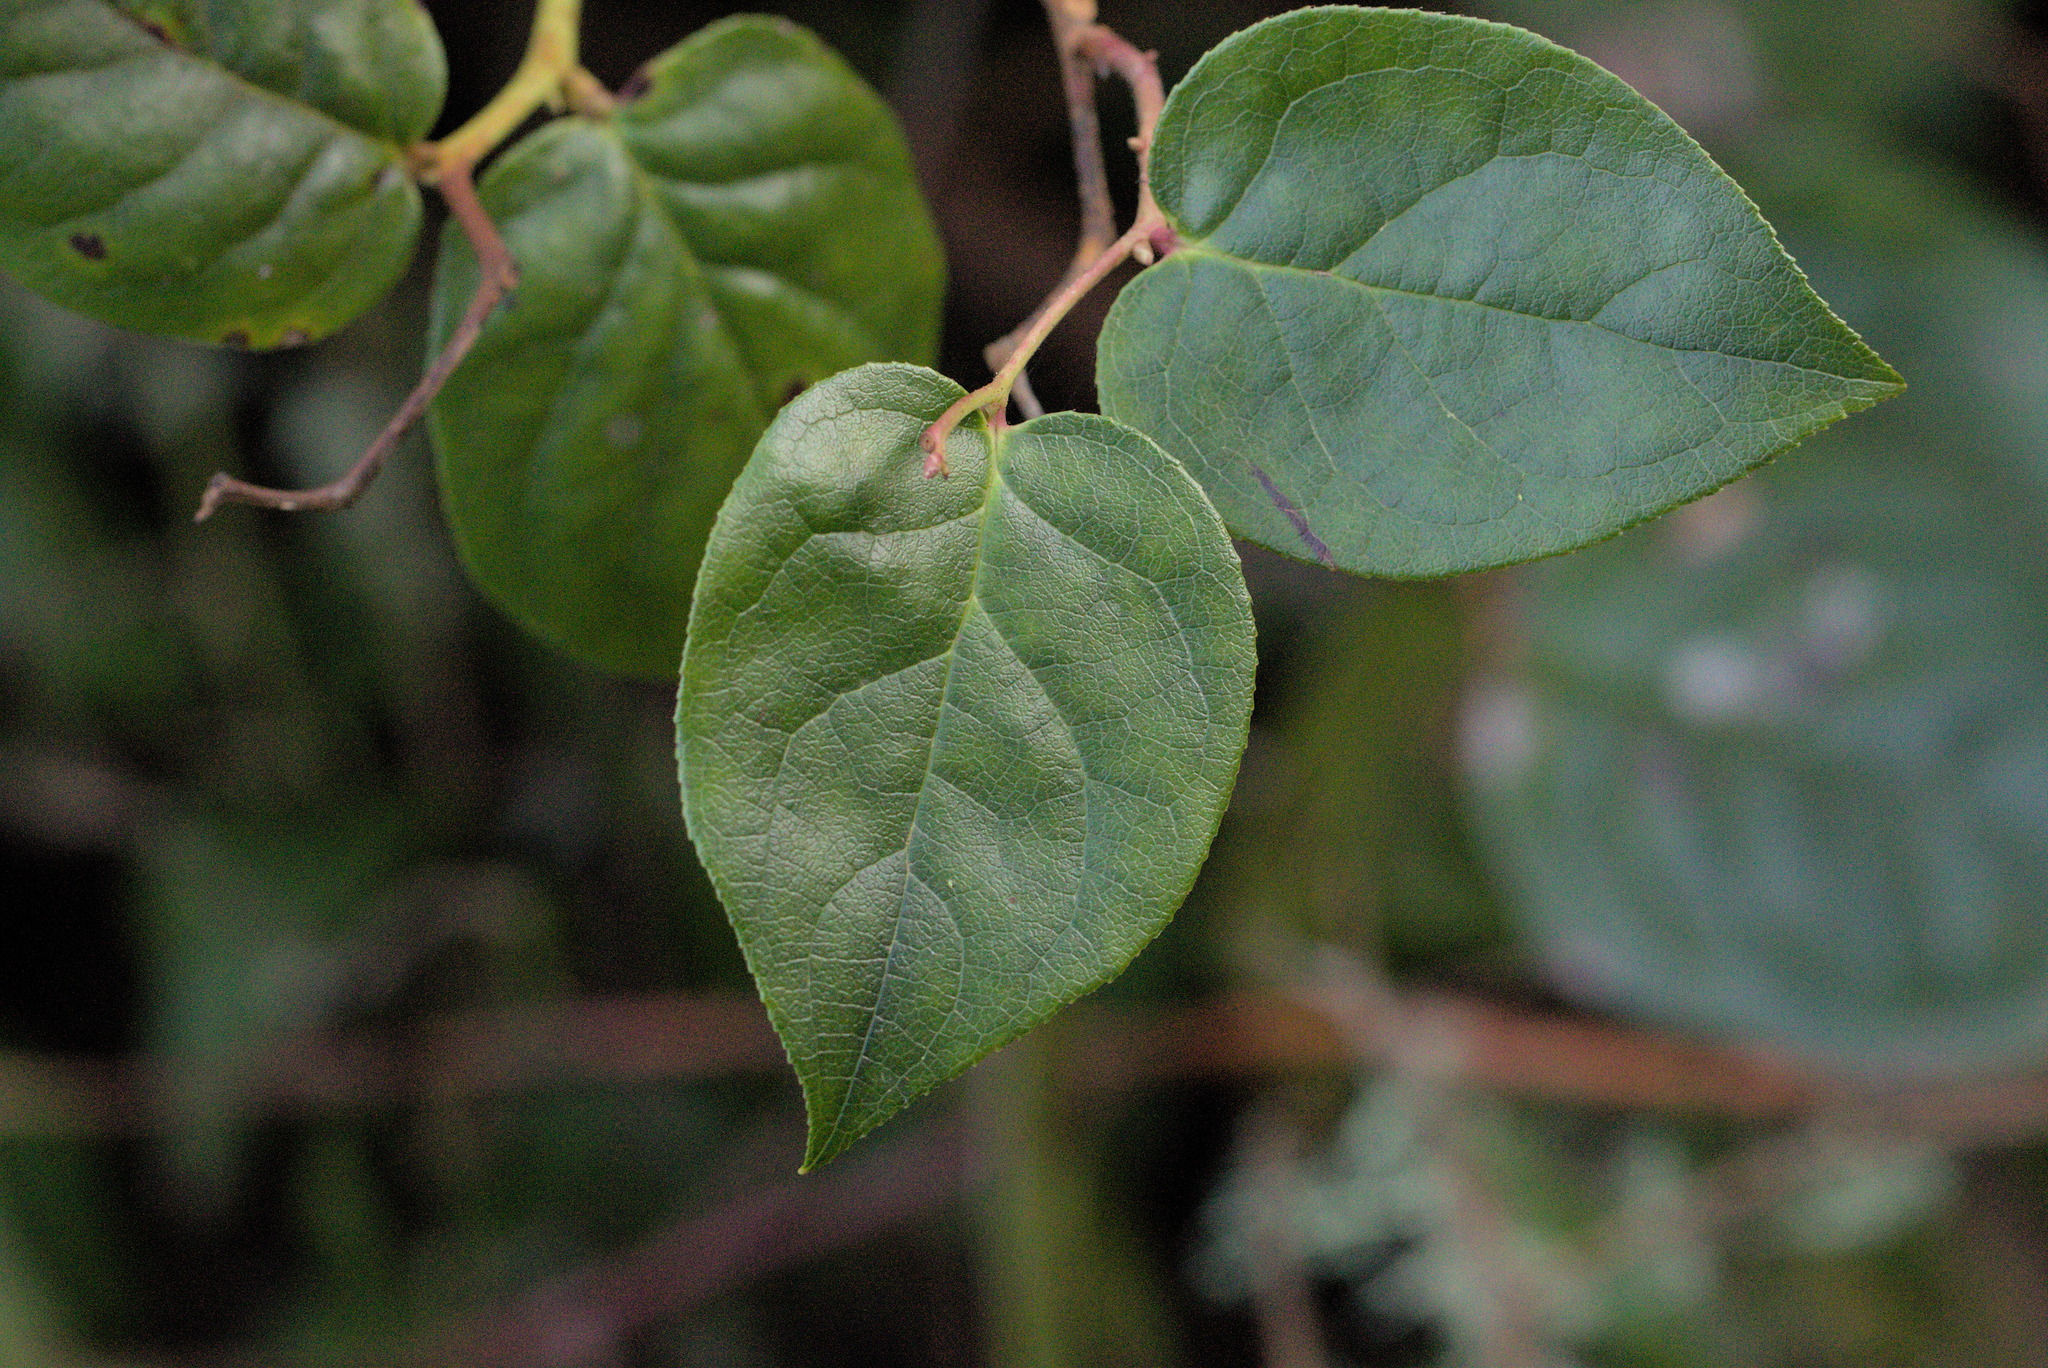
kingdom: Plantae
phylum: Tracheophyta
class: Magnoliopsida
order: Ericales
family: Ericaceae
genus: Gaultheria
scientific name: Gaultheria shallon
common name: Shallon
